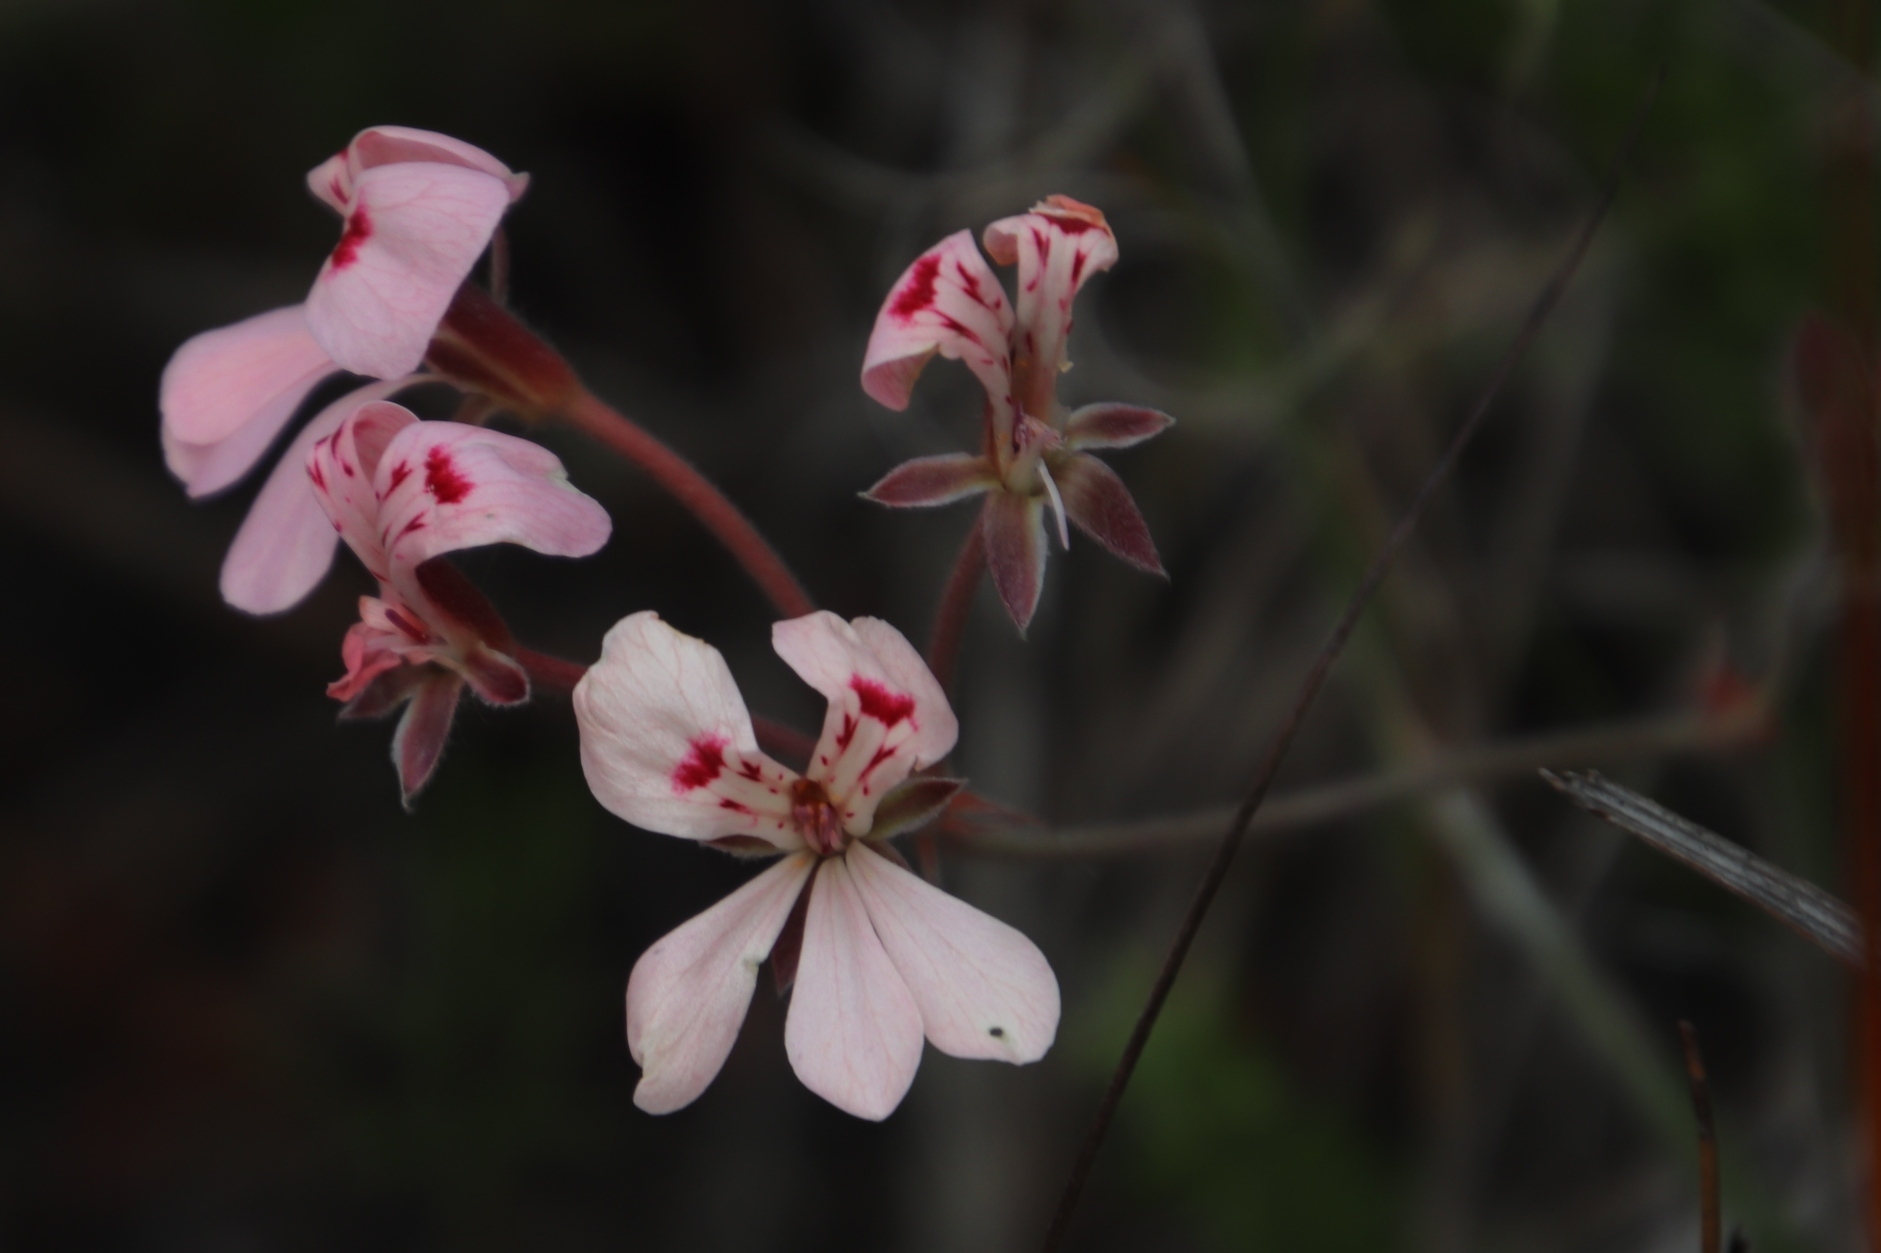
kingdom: Plantae
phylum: Tracheophyta
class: Magnoliopsida
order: Geraniales
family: Geraniaceae
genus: Pelargonium
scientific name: Pelargonium pinnatum
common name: Pinnated pelargonium
